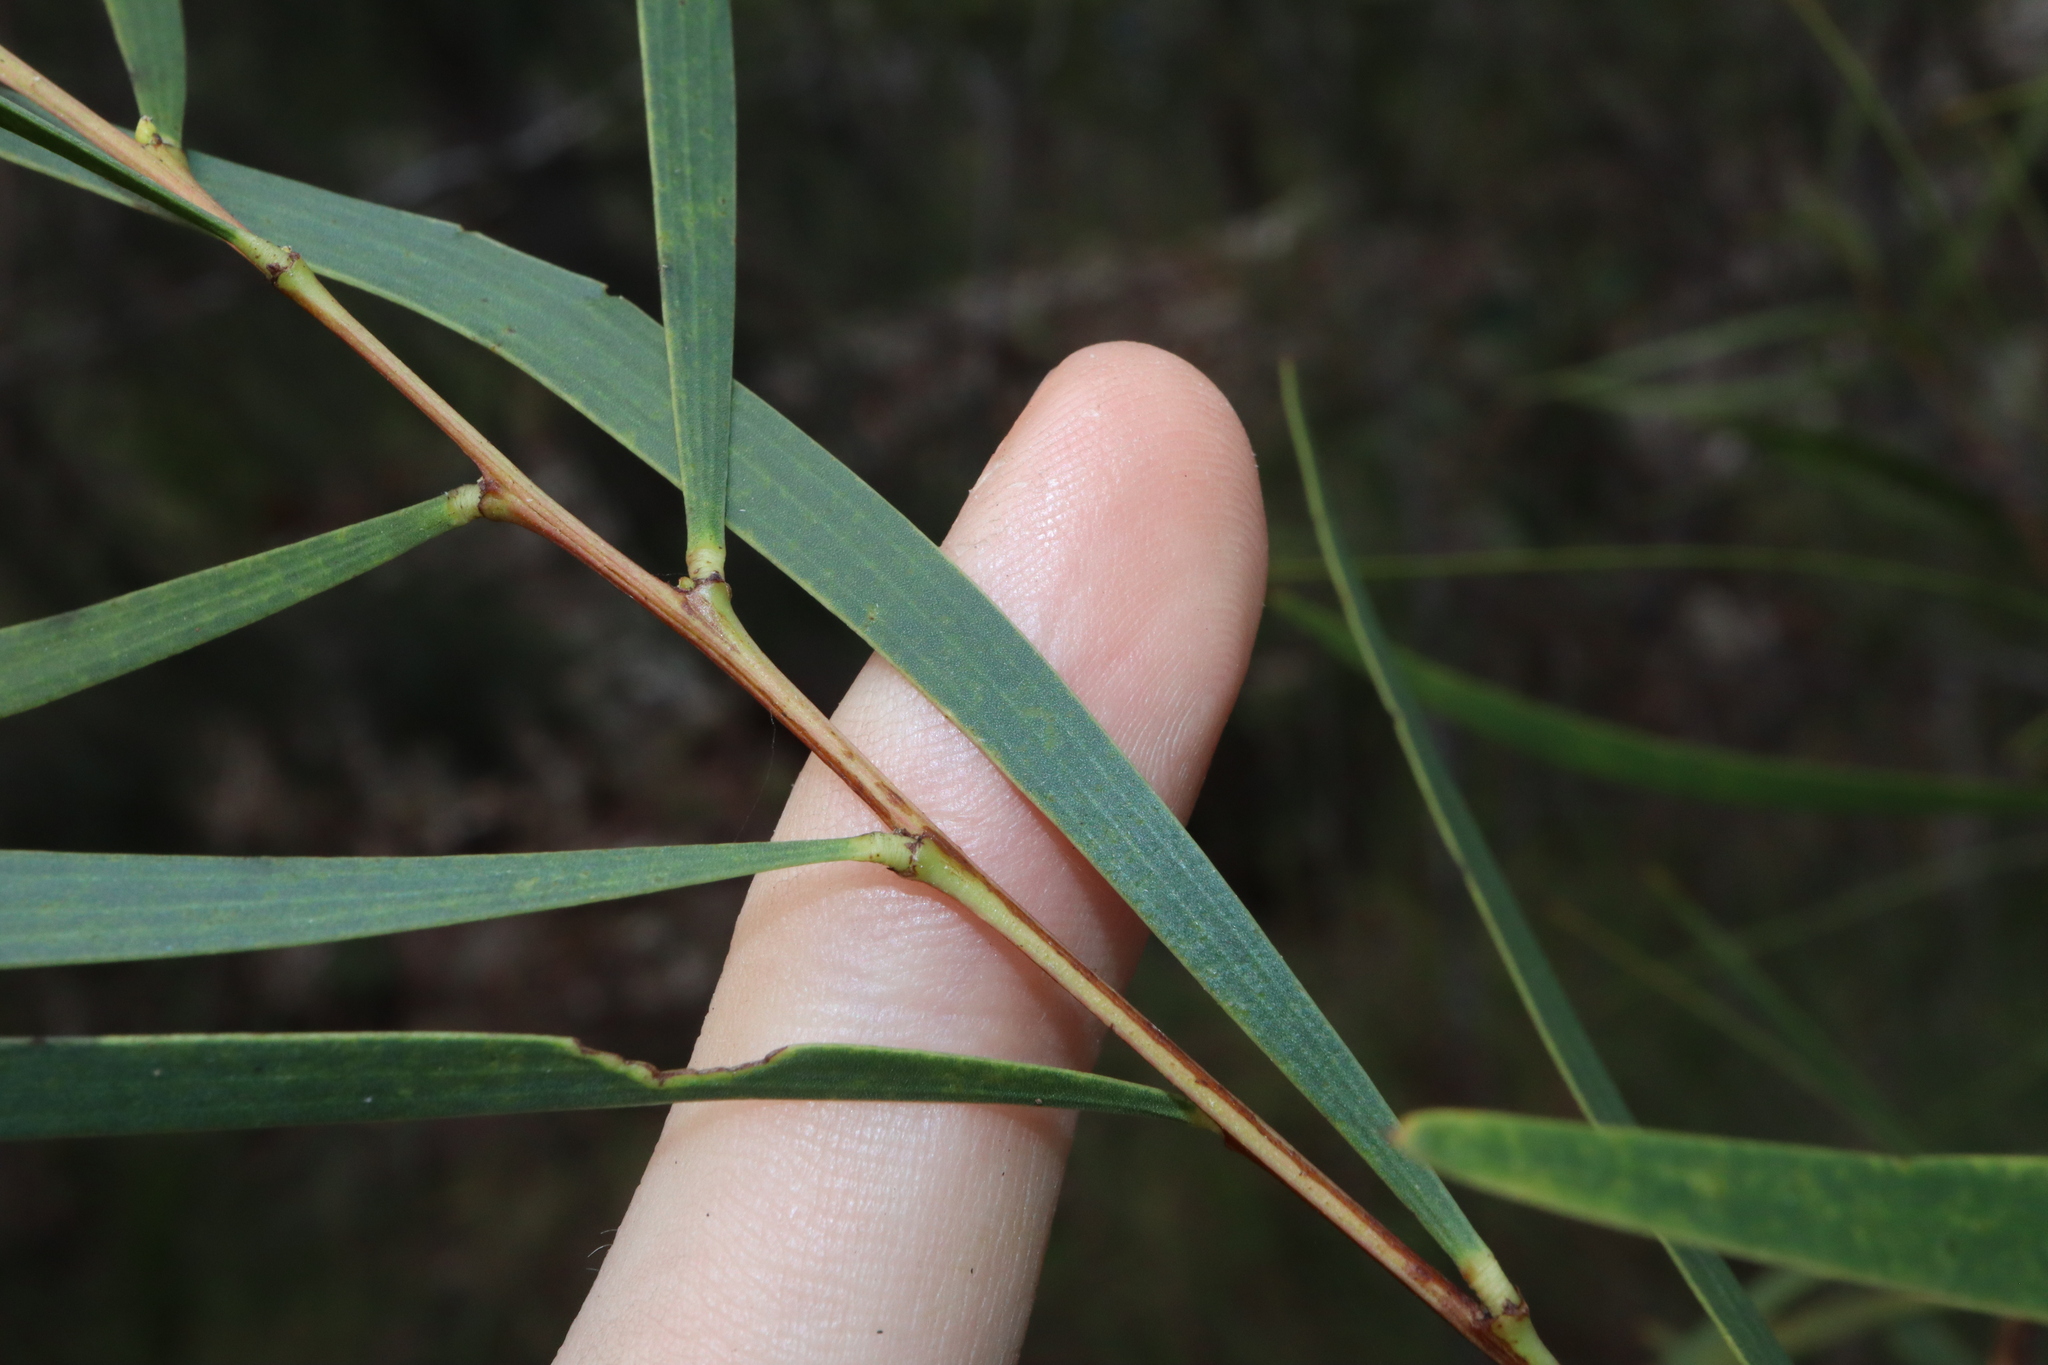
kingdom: Plantae
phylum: Tracheophyta
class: Magnoliopsida
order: Fabales
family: Fabaceae
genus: Acacia
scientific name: Acacia simsii
